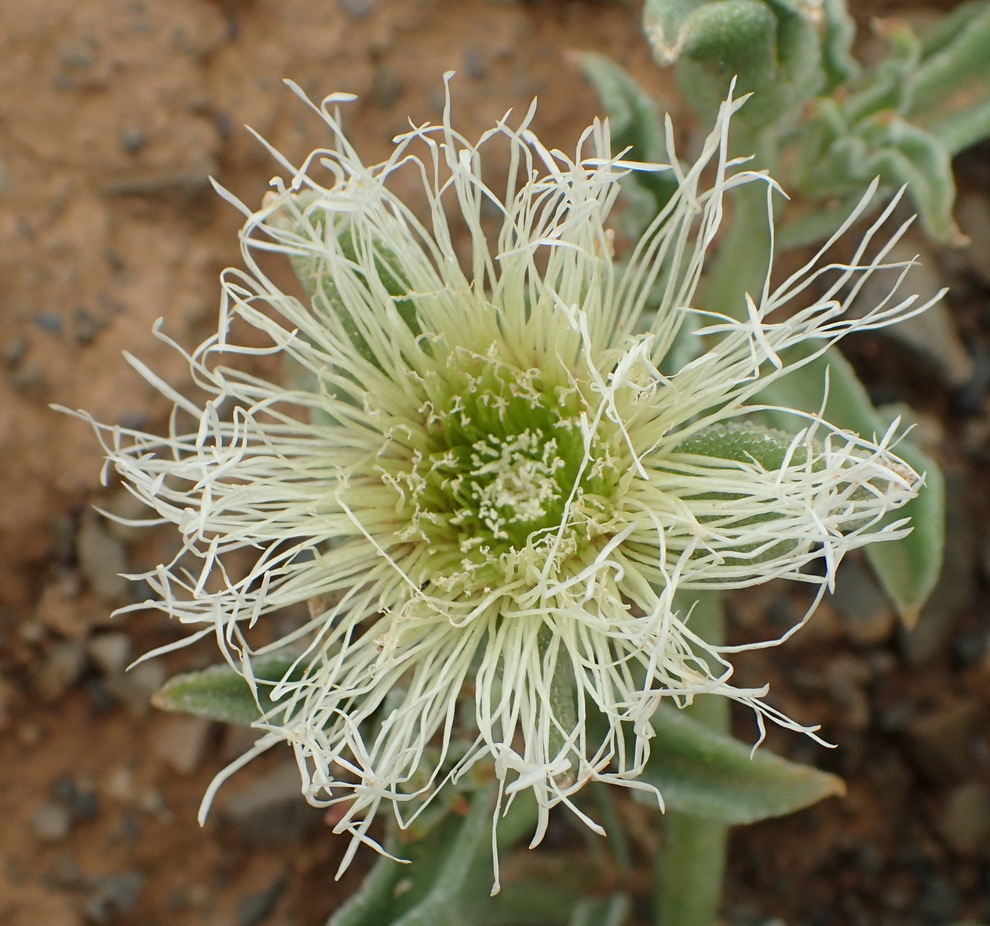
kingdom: Plantae
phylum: Tracheophyta
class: Magnoliopsida
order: Caryophyllales
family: Aizoaceae
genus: Mesembryanthemum
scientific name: Mesembryanthemum guerichianum
